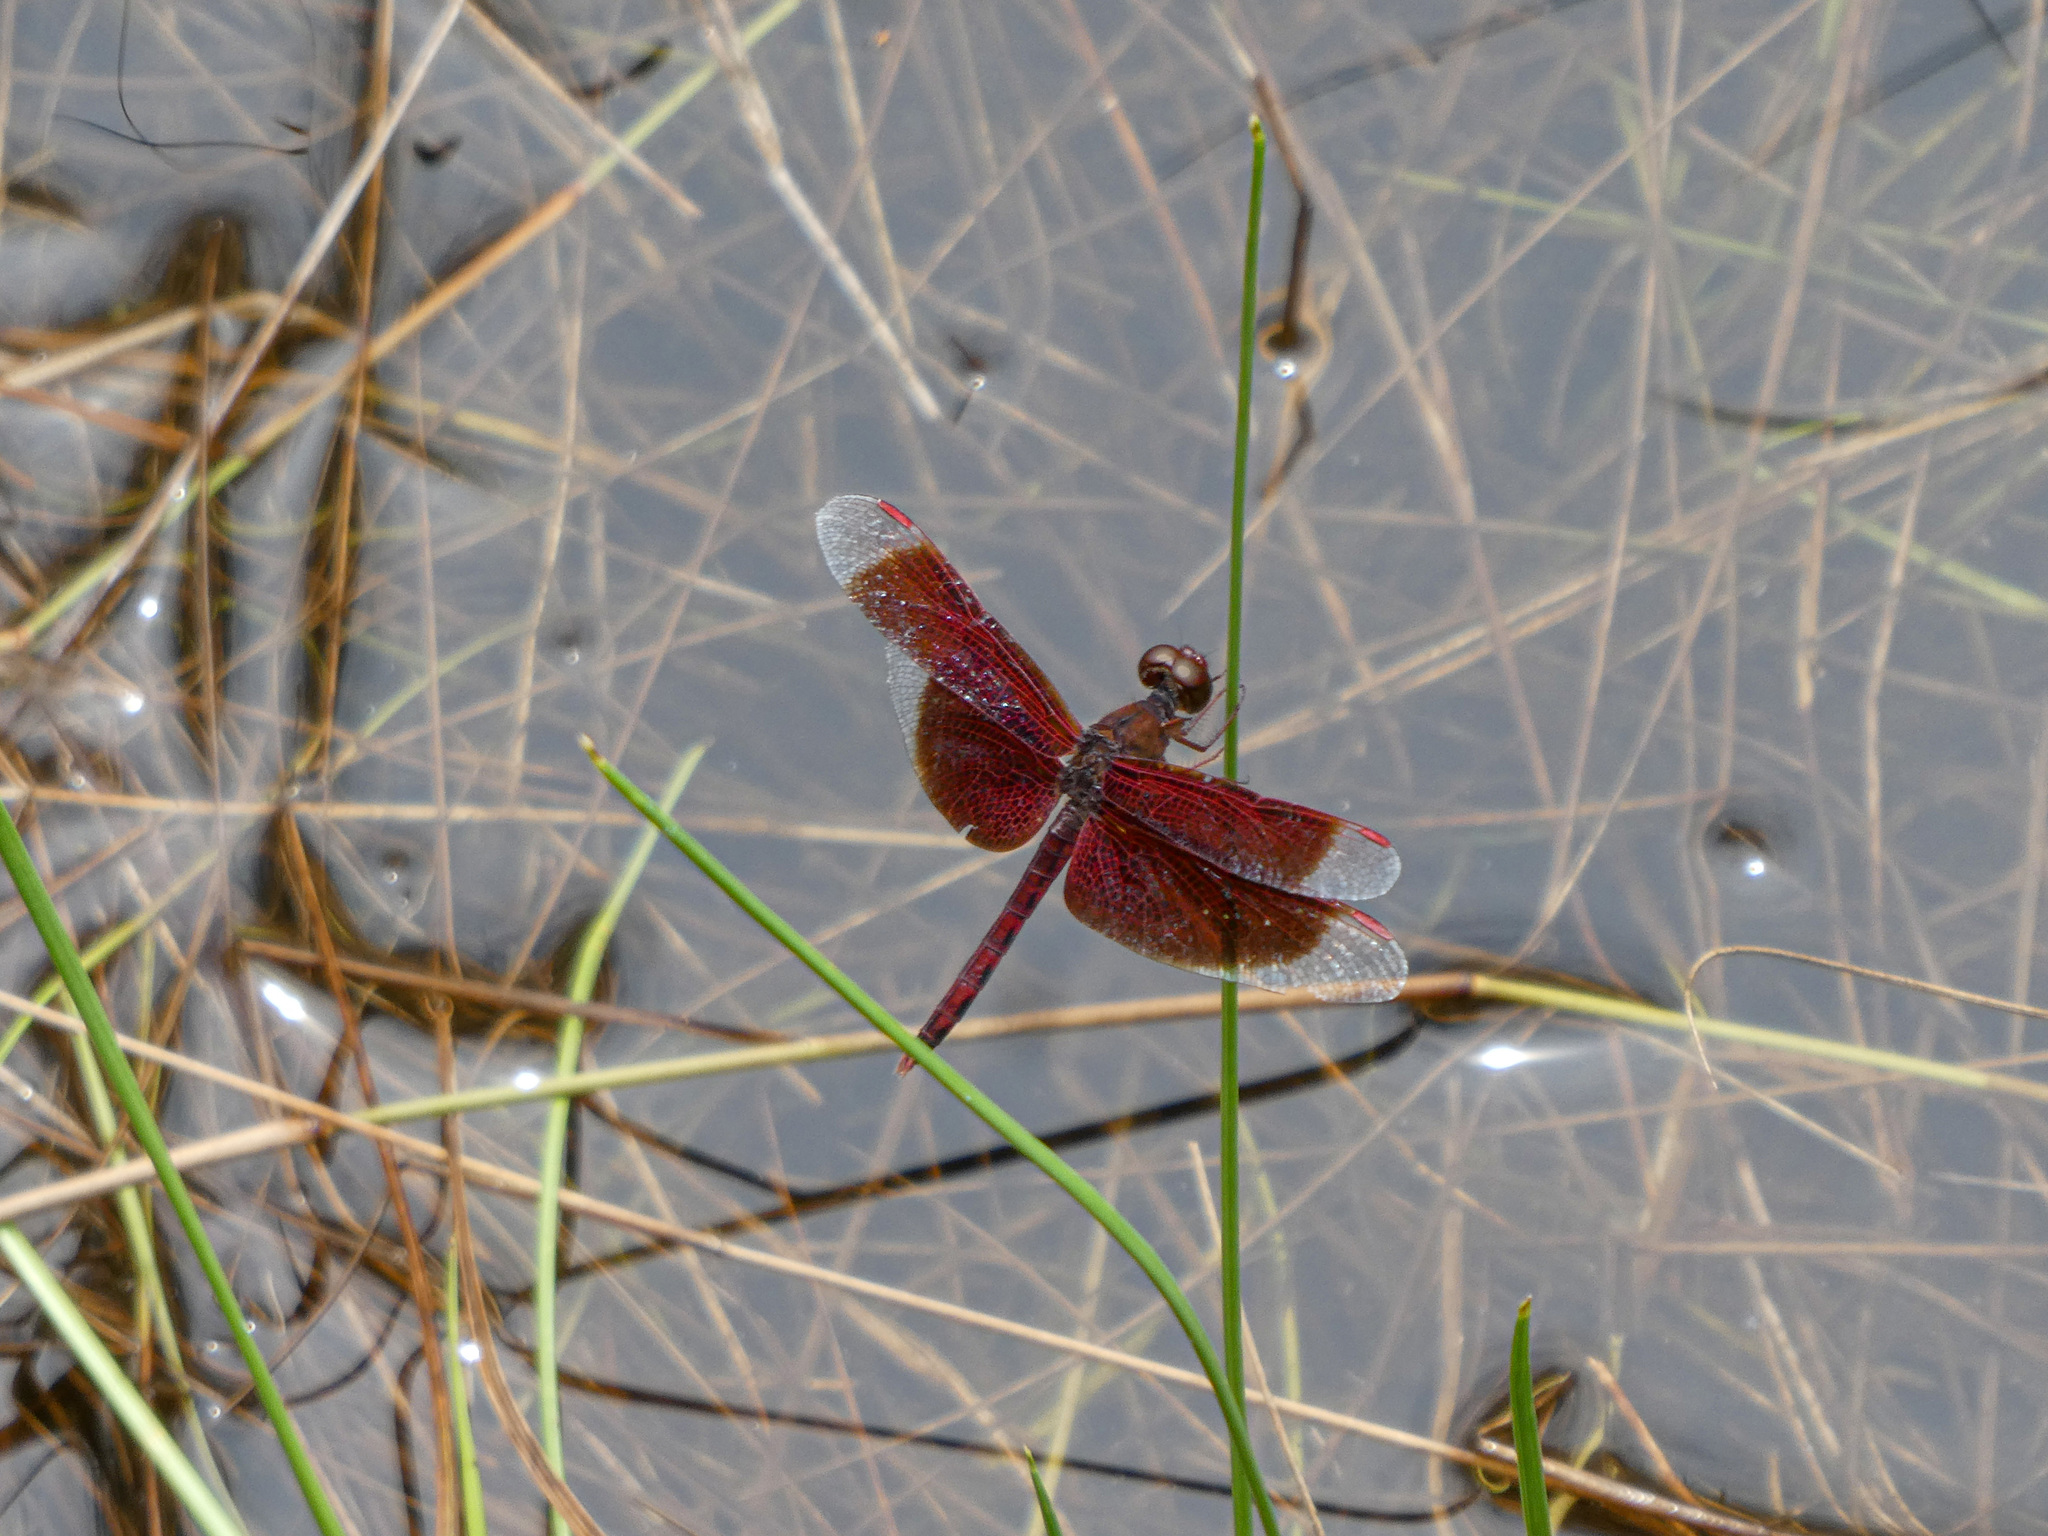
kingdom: Animalia
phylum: Arthropoda
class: Insecta
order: Odonata
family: Libellulidae
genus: Neurothemis
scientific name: Neurothemis fluctuans
